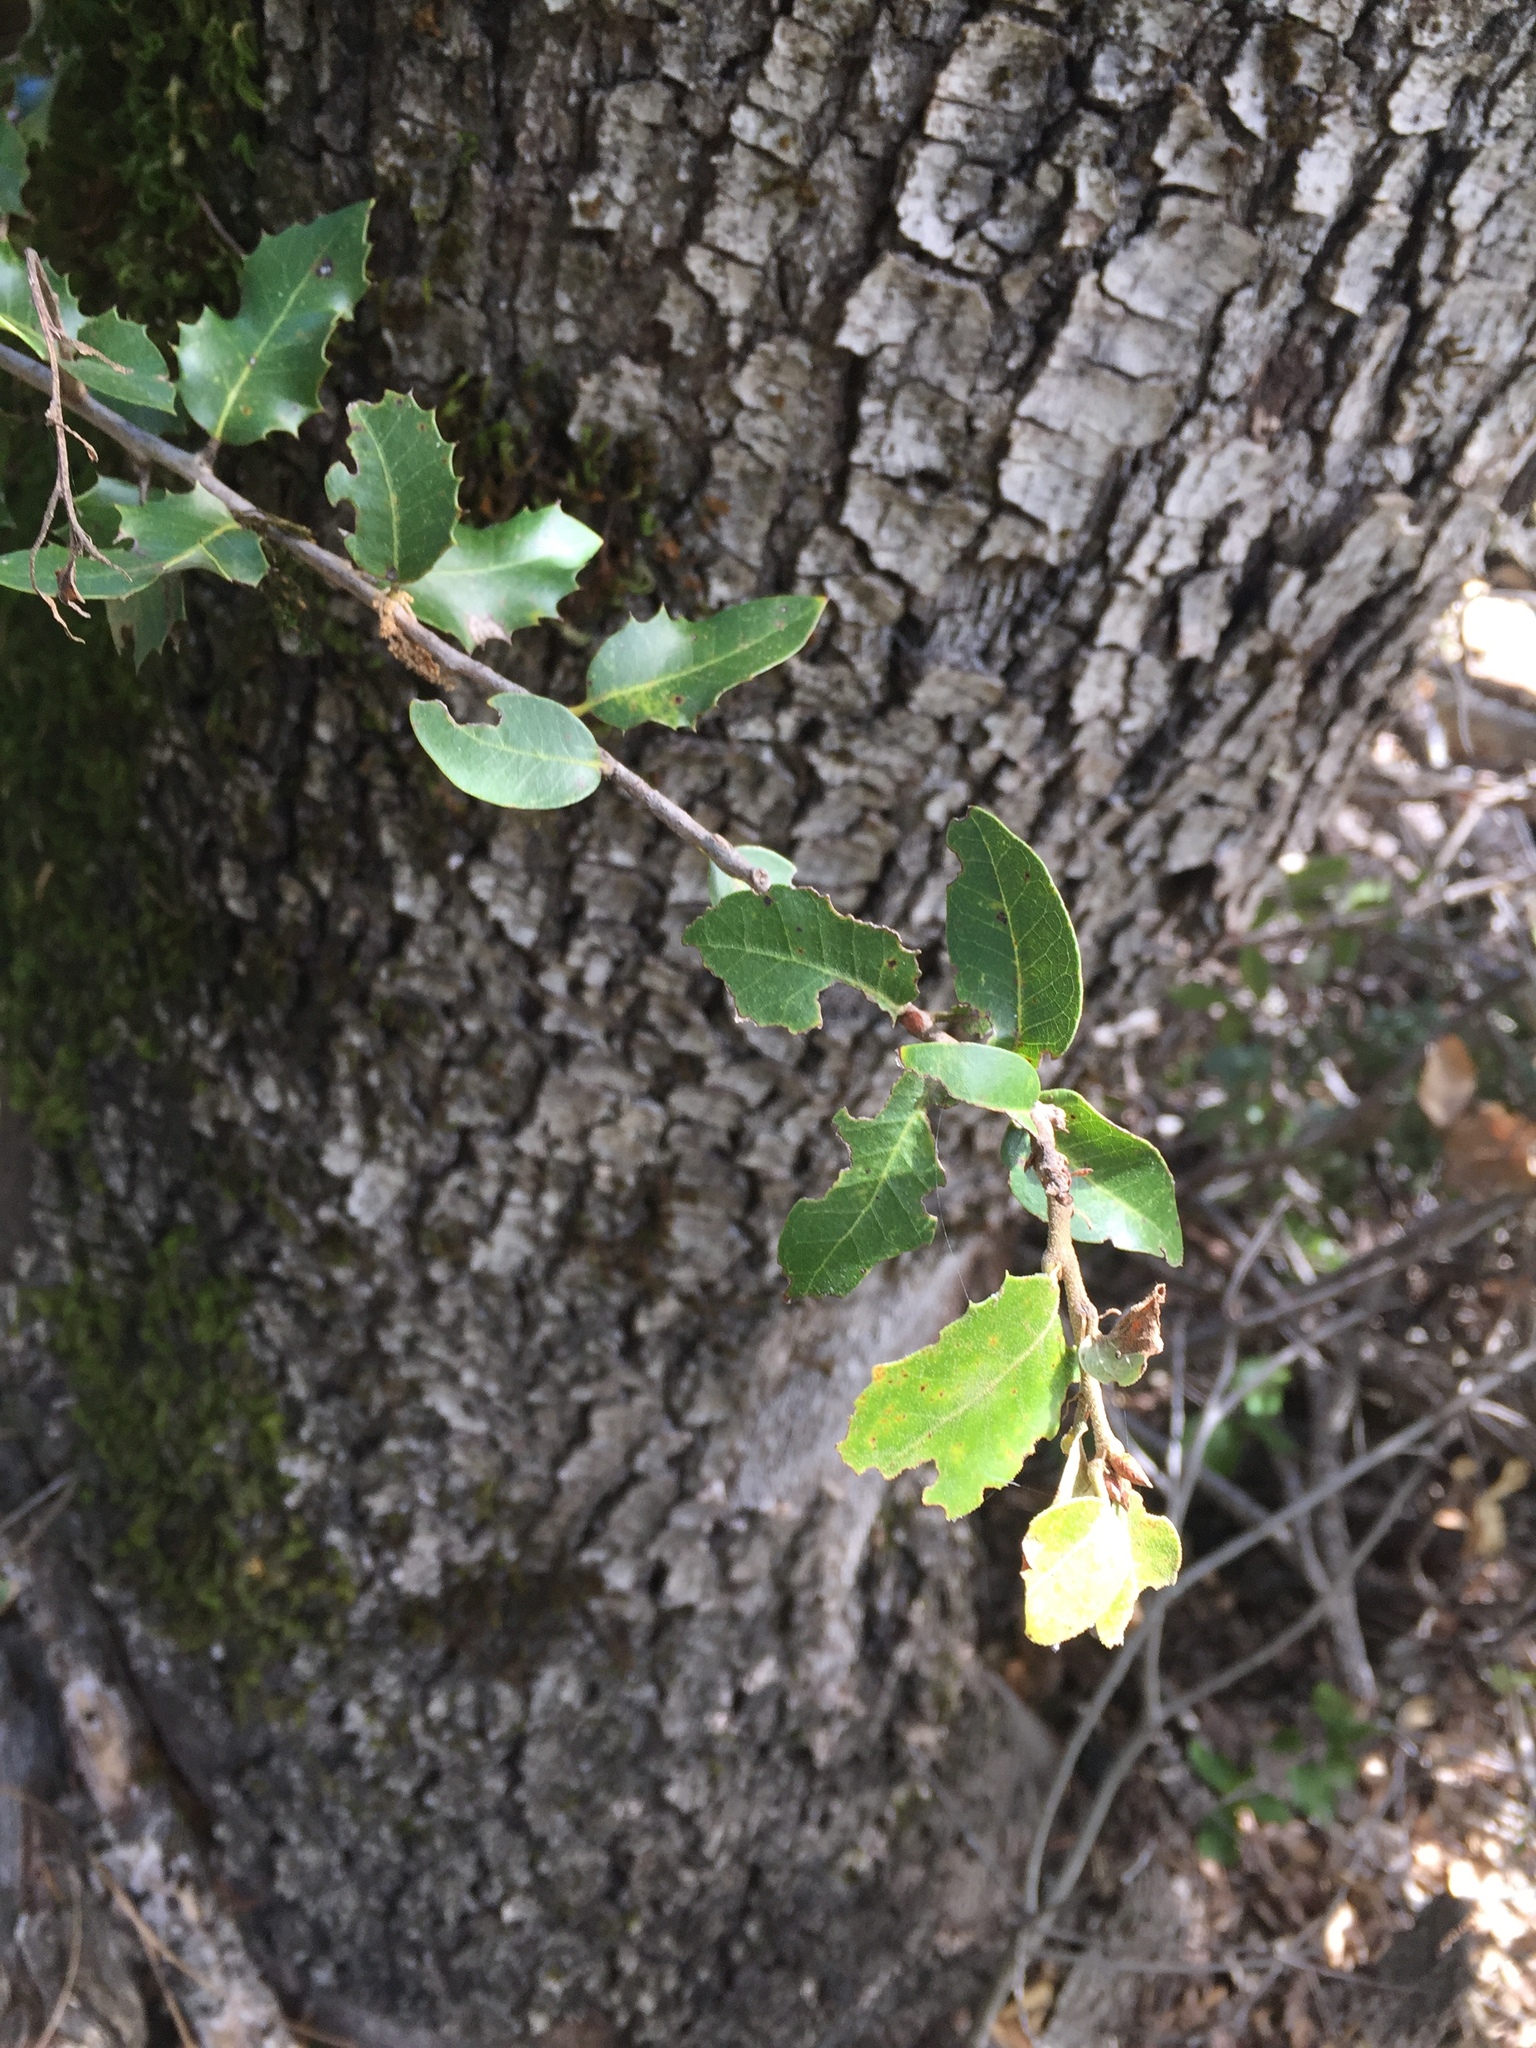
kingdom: Plantae
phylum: Tracheophyta
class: Magnoliopsida
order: Fagales
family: Fagaceae
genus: Quercus
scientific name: Quercus chrysolepis
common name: Canyon live oak
